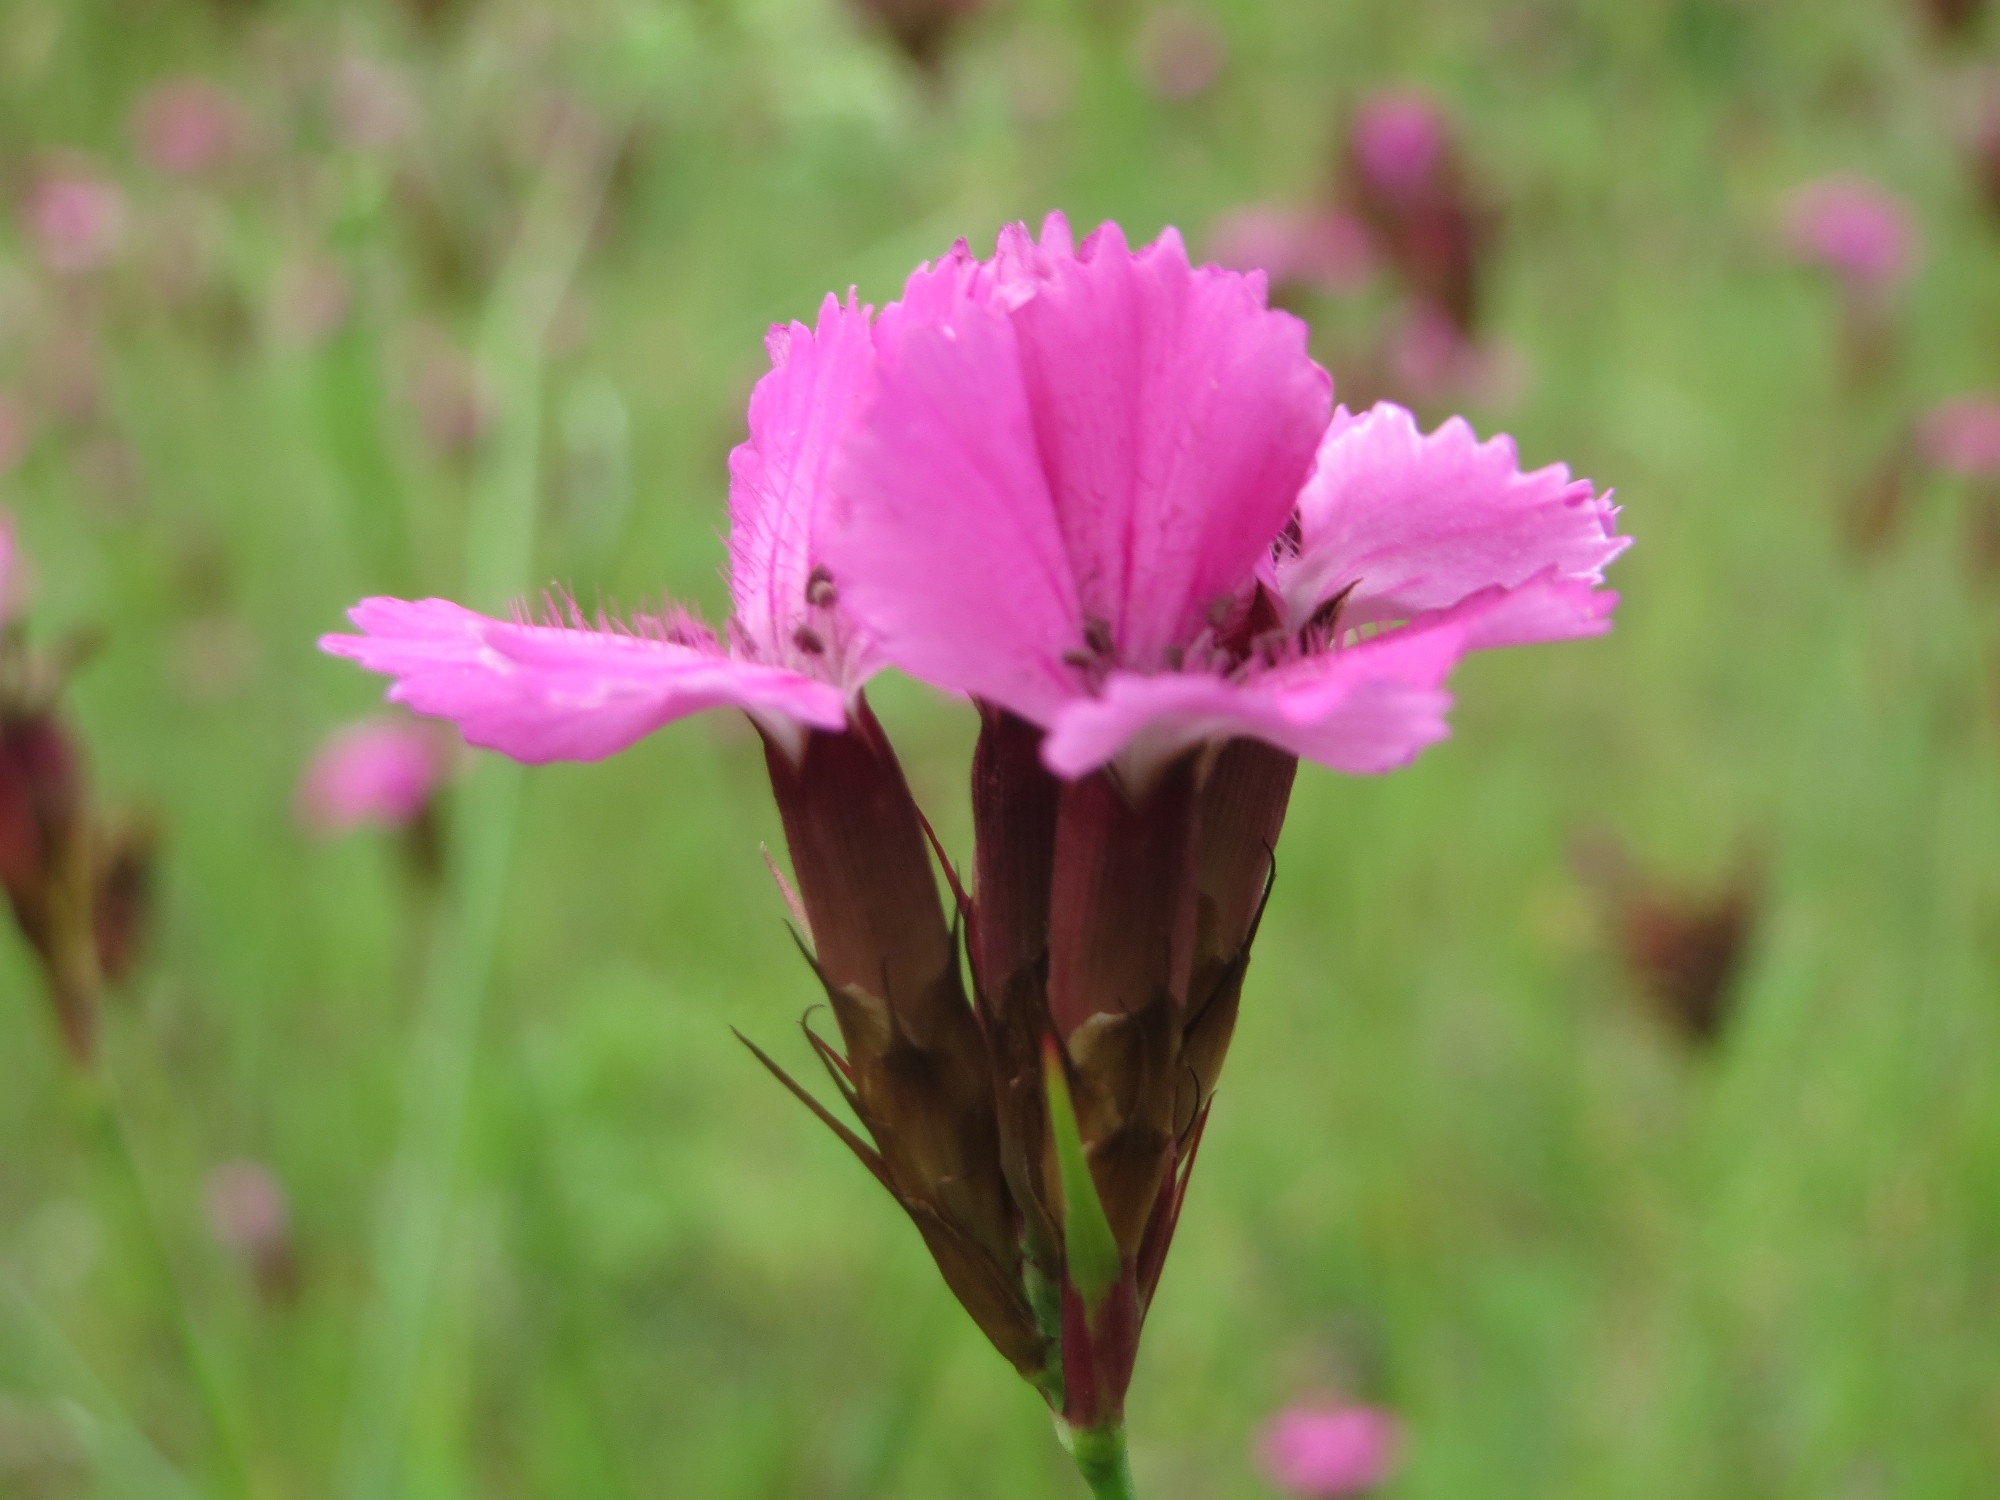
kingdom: Plantae
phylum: Tracheophyta
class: Magnoliopsida
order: Caryophyllales
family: Caryophyllaceae
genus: Dianthus
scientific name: Dianthus carthusianorum
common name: Carthusian pink
